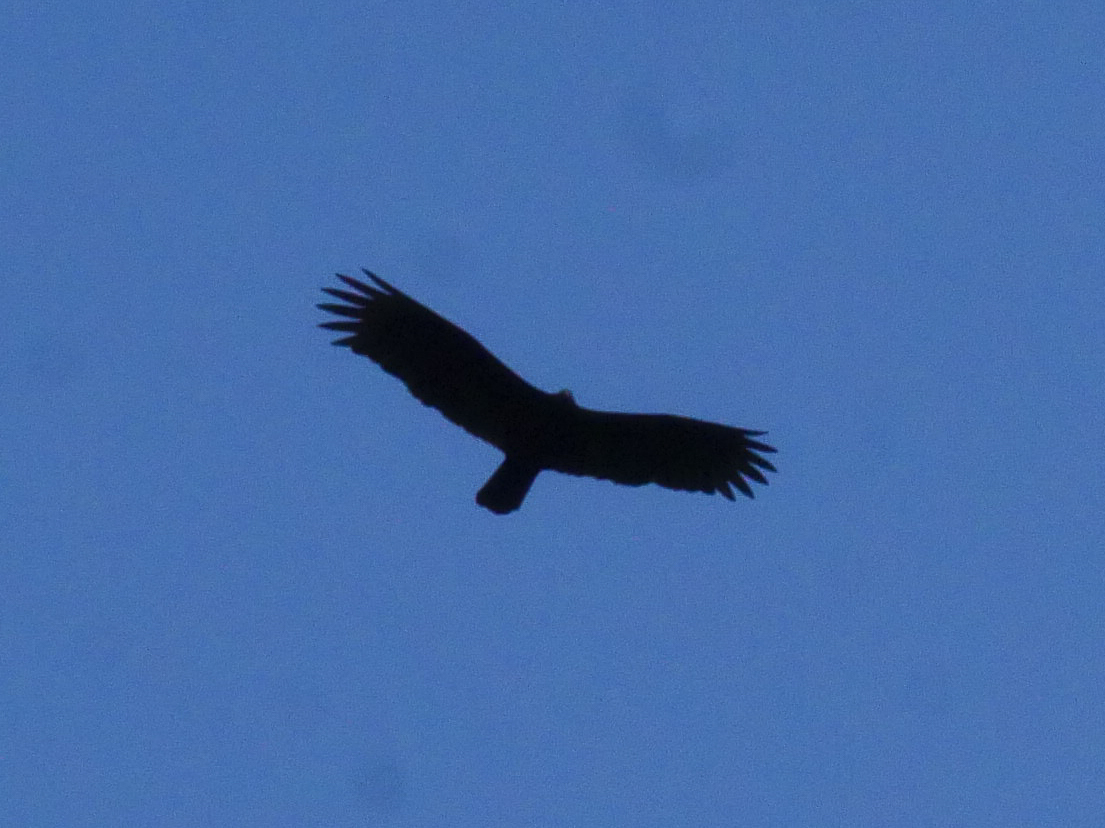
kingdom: Animalia
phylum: Chordata
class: Aves
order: Accipitriformes
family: Cathartidae
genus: Cathartes
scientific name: Cathartes aura
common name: Turkey vulture
